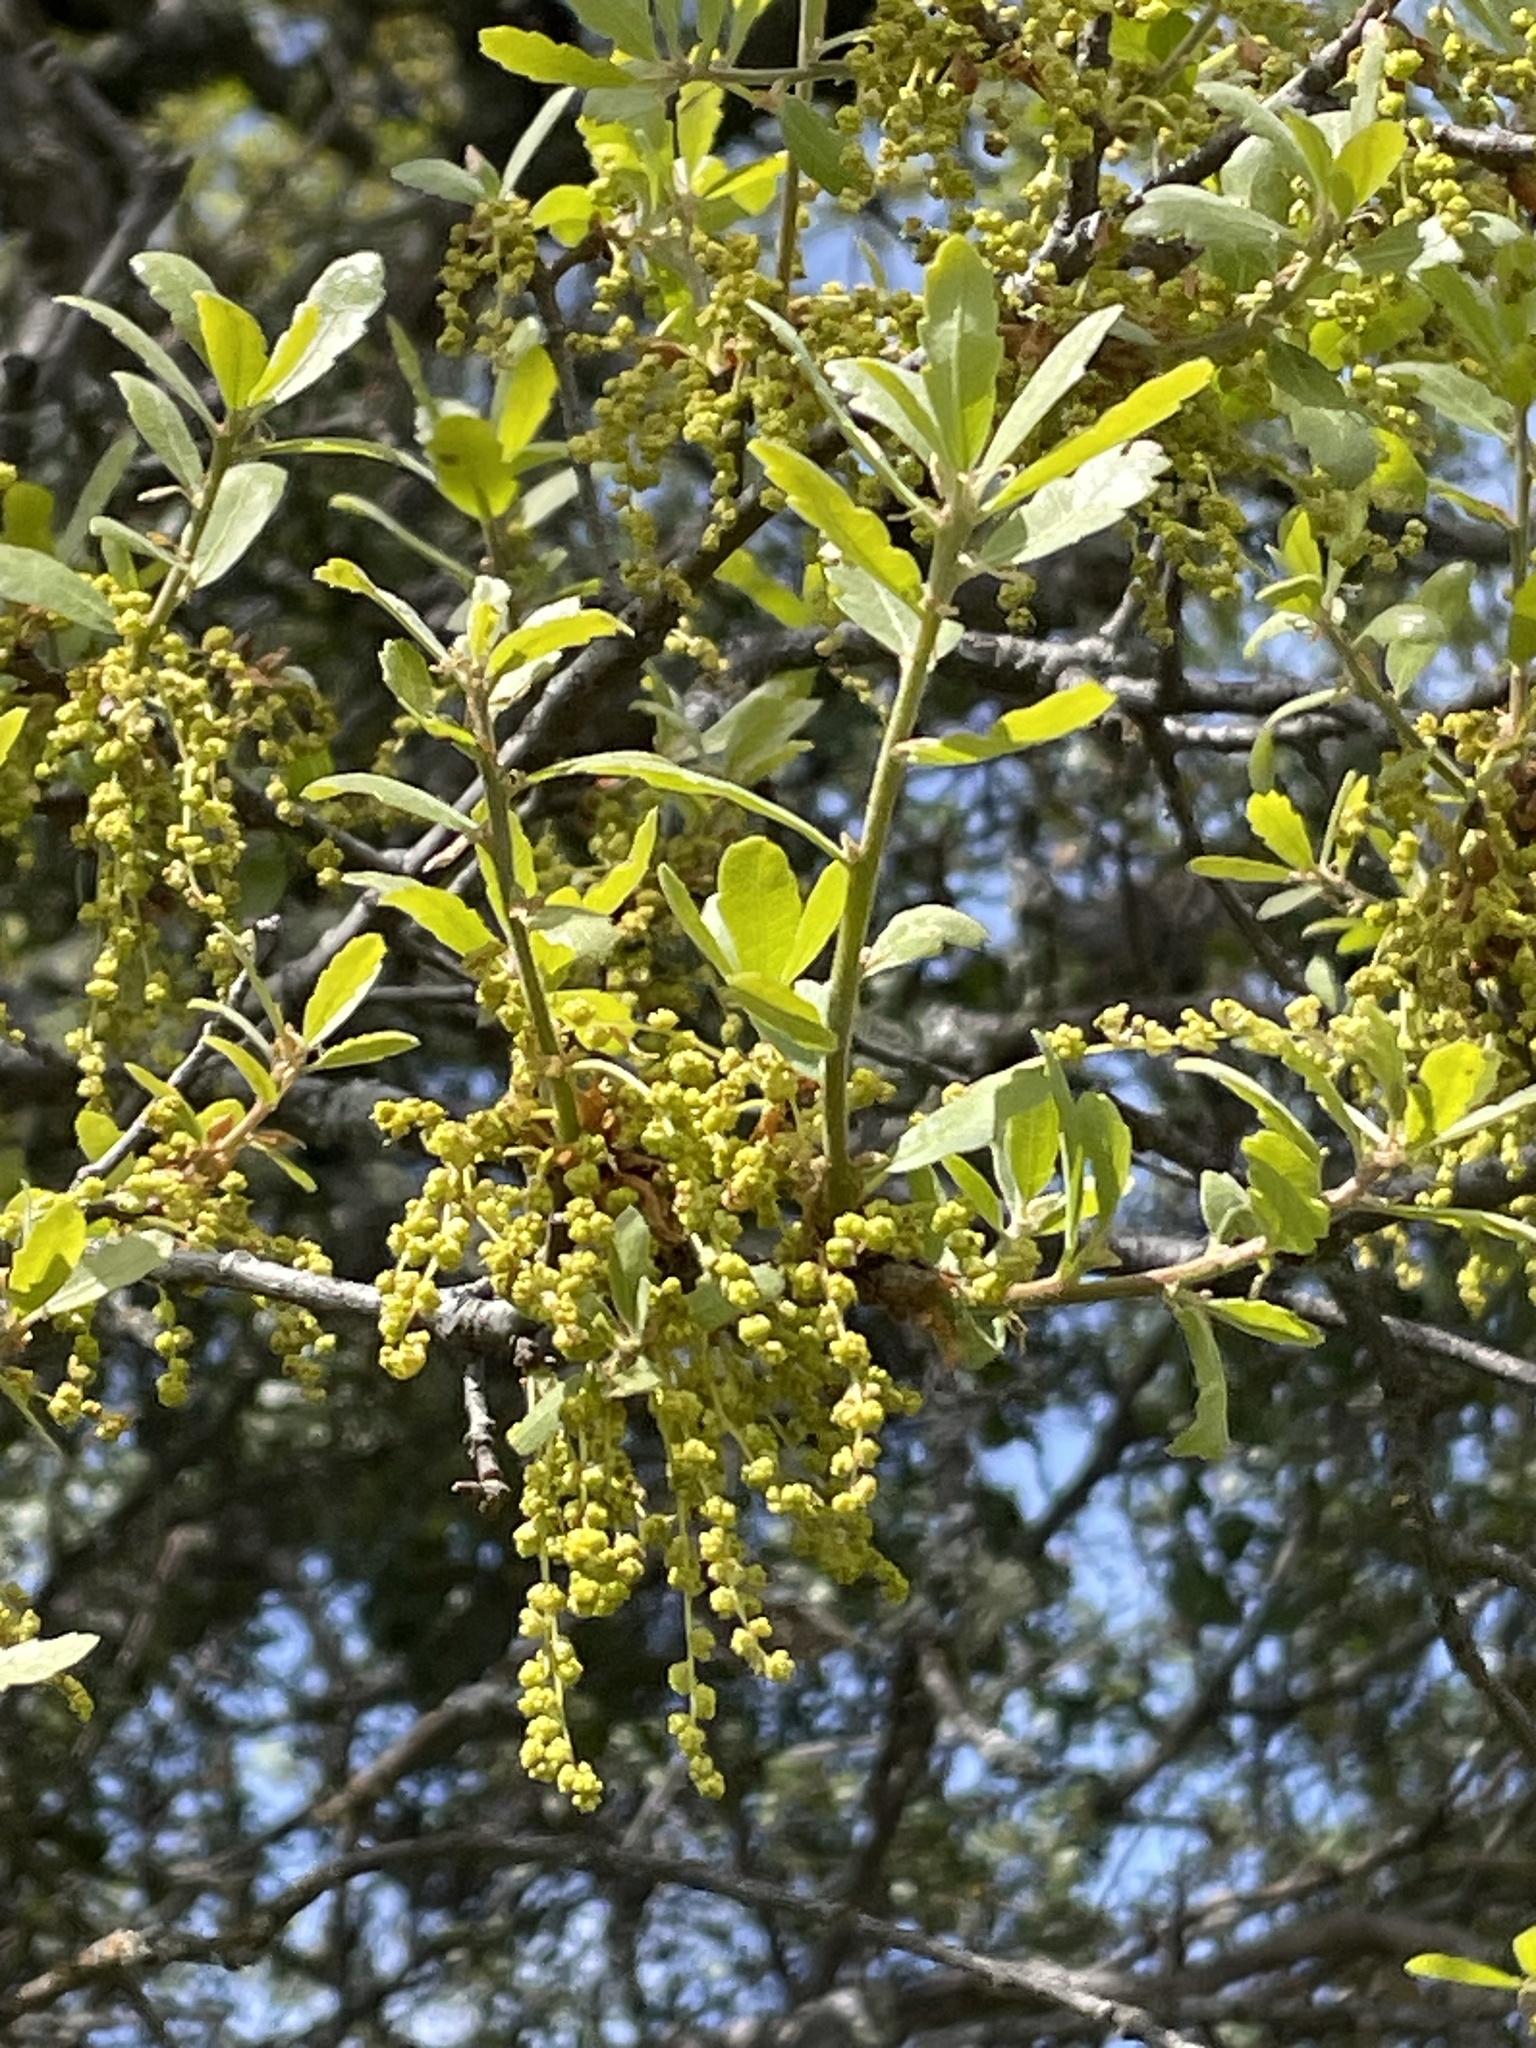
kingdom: Plantae
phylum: Tracheophyta
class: Magnoliopsida
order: Fagales
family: Fagaceae
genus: Quercus
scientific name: Quercus douglasii
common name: Blue oak
